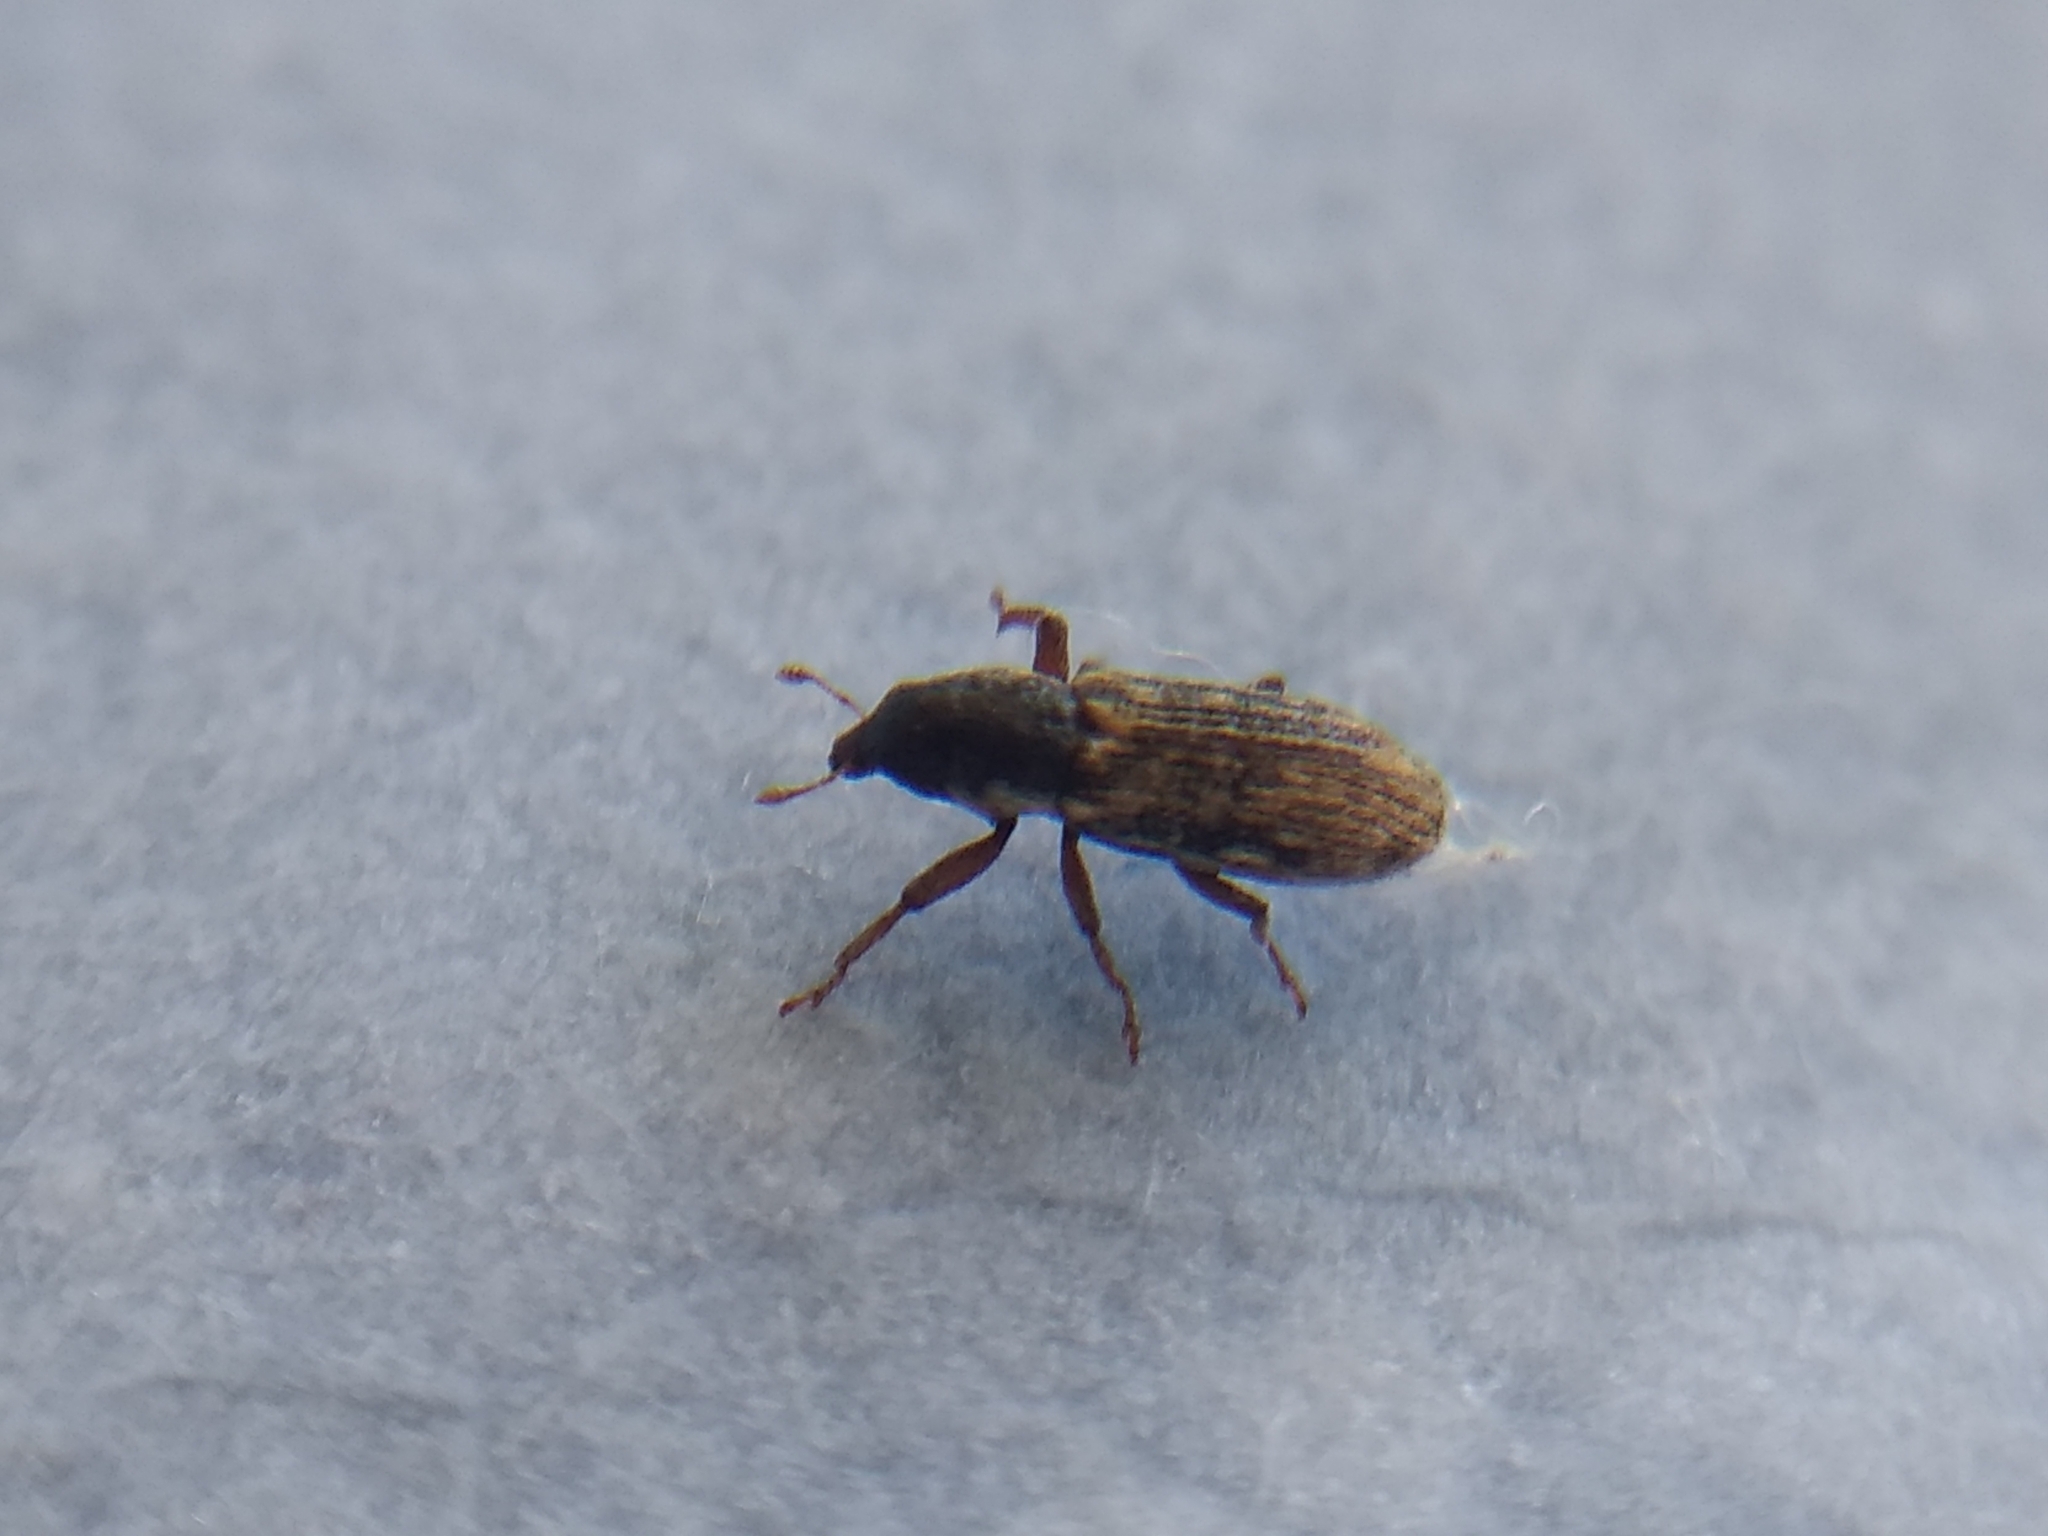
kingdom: Animalia
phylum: Arthropoda
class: Insecta
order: Coleoptera
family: Curculionidae
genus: Microlarinus
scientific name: Microlarinus lypriformis
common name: Weevil
